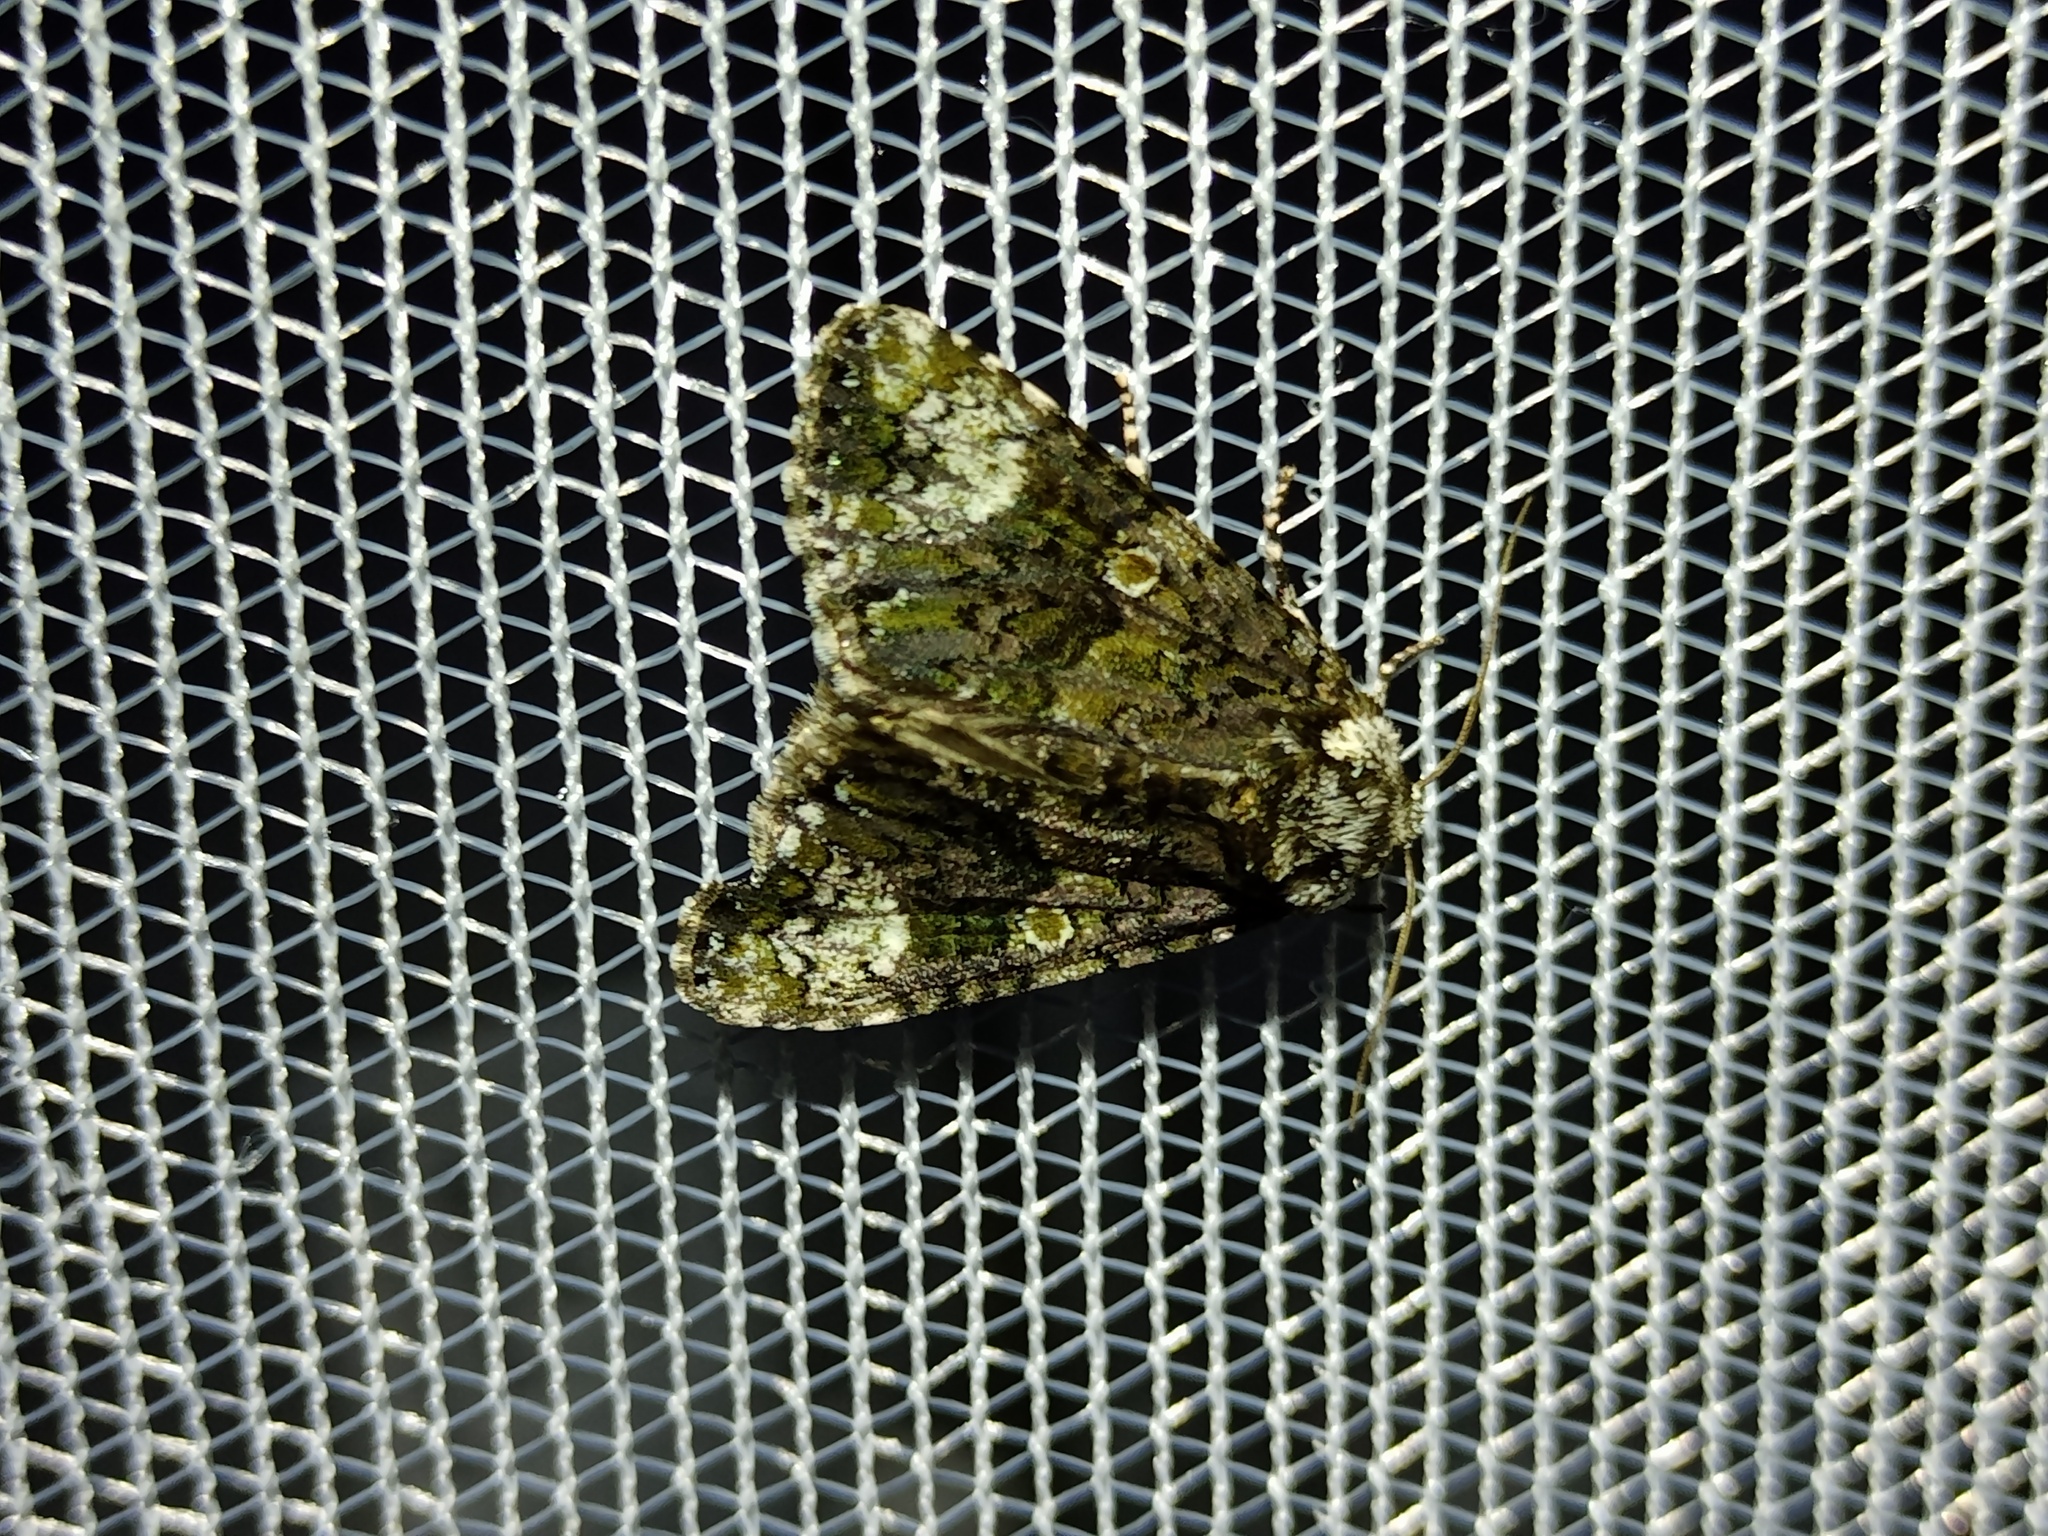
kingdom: Animalia
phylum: Arthropoda
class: Insecta
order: Lepidoptera
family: Noctuidae
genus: Craniophora
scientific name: Craniophora ligustri
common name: Coronet
